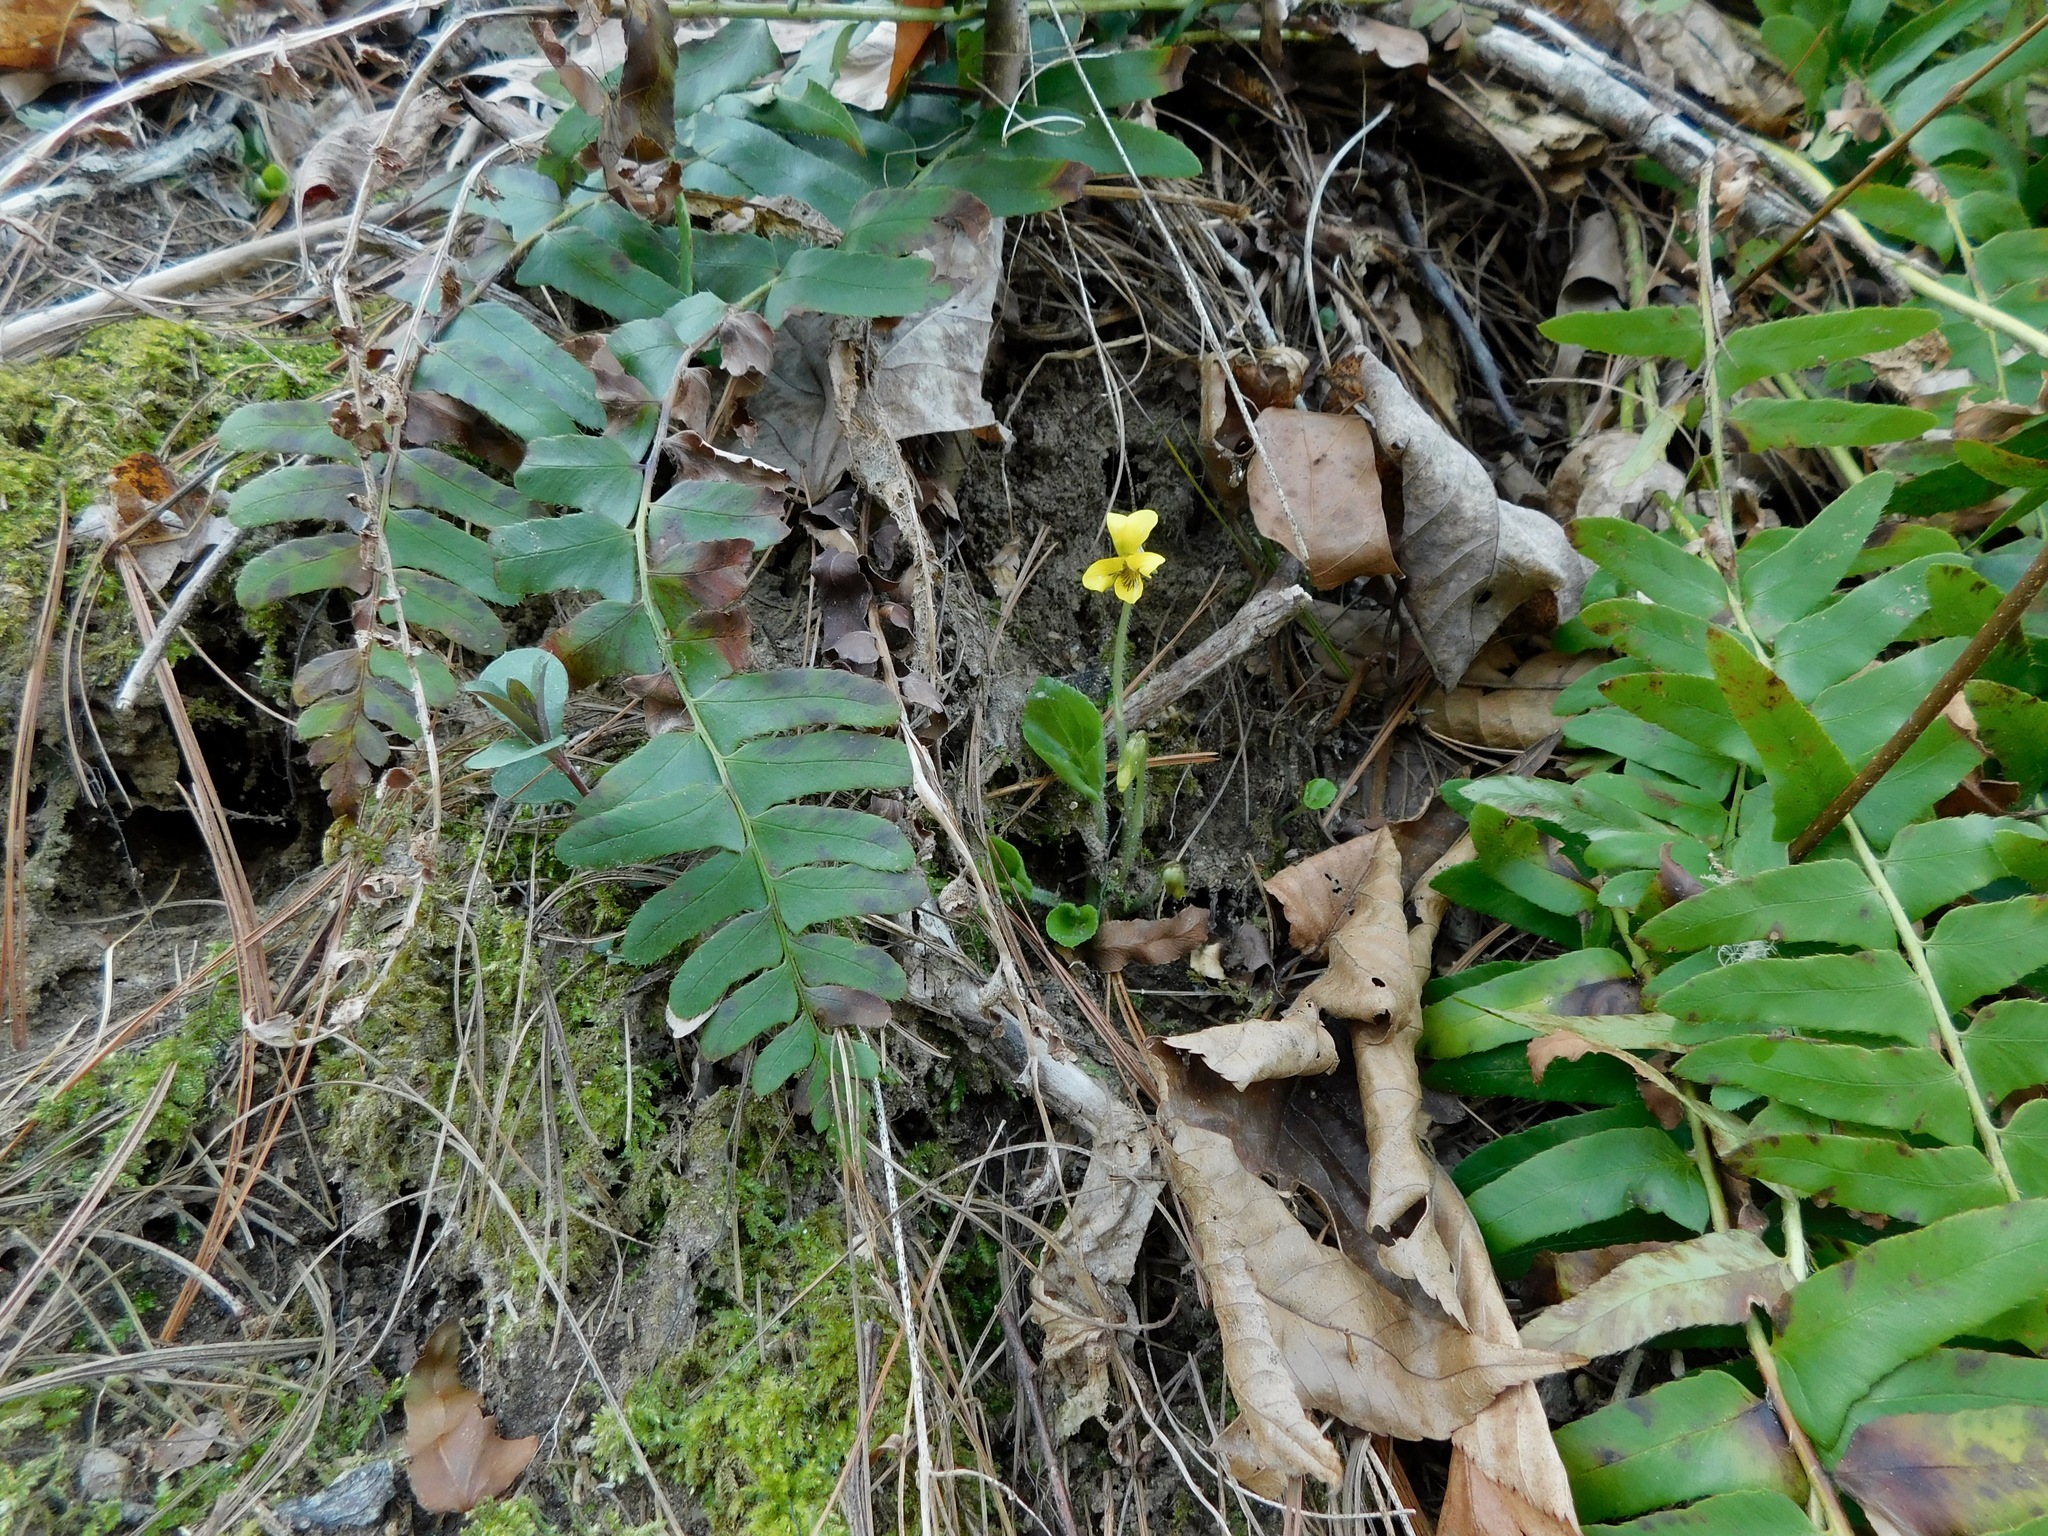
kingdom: Plantae
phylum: Tracheophyta
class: Magnoliopsida
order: Malpighiales
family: Violaceae
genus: Viola
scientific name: Viola rotundifolia
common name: Early yellow violet
